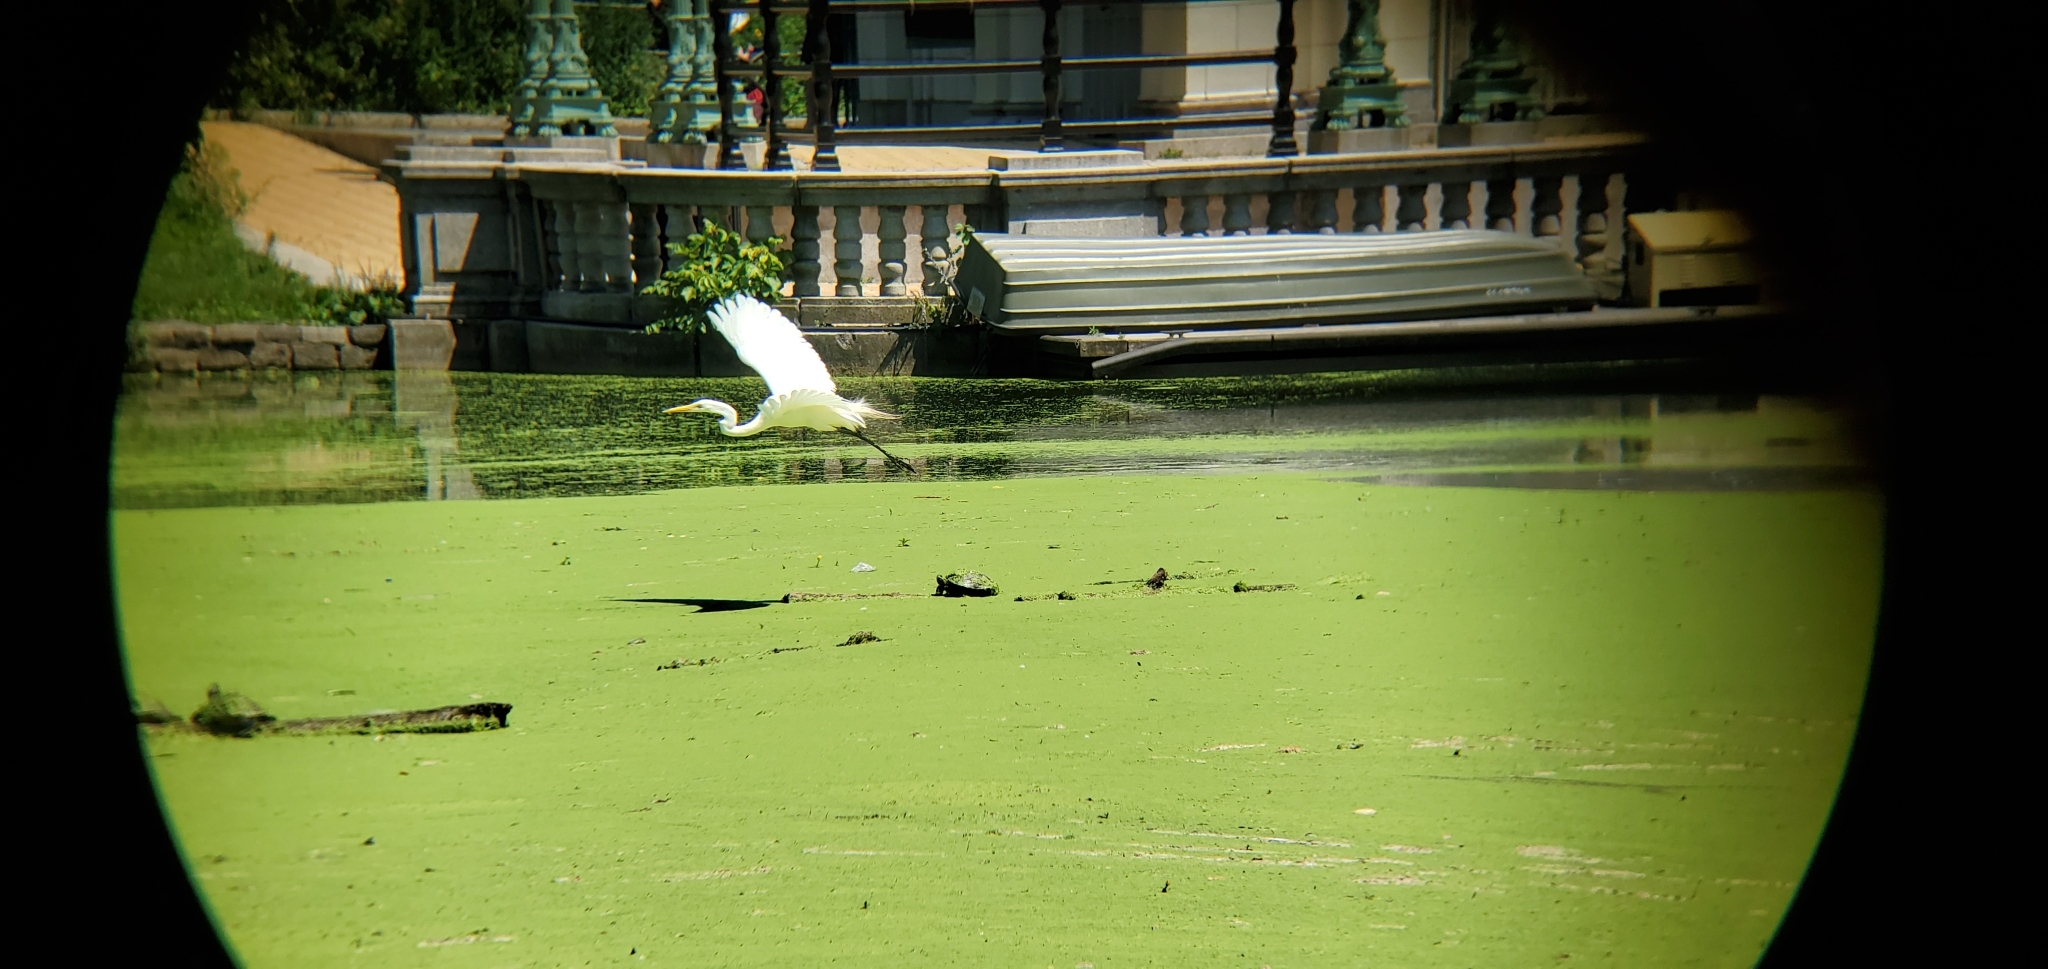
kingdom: Animalia
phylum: Chordata
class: Aves
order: Pelecaniformes
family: Ardeidae
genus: Ardea
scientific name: Ardea alba
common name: Great egret
